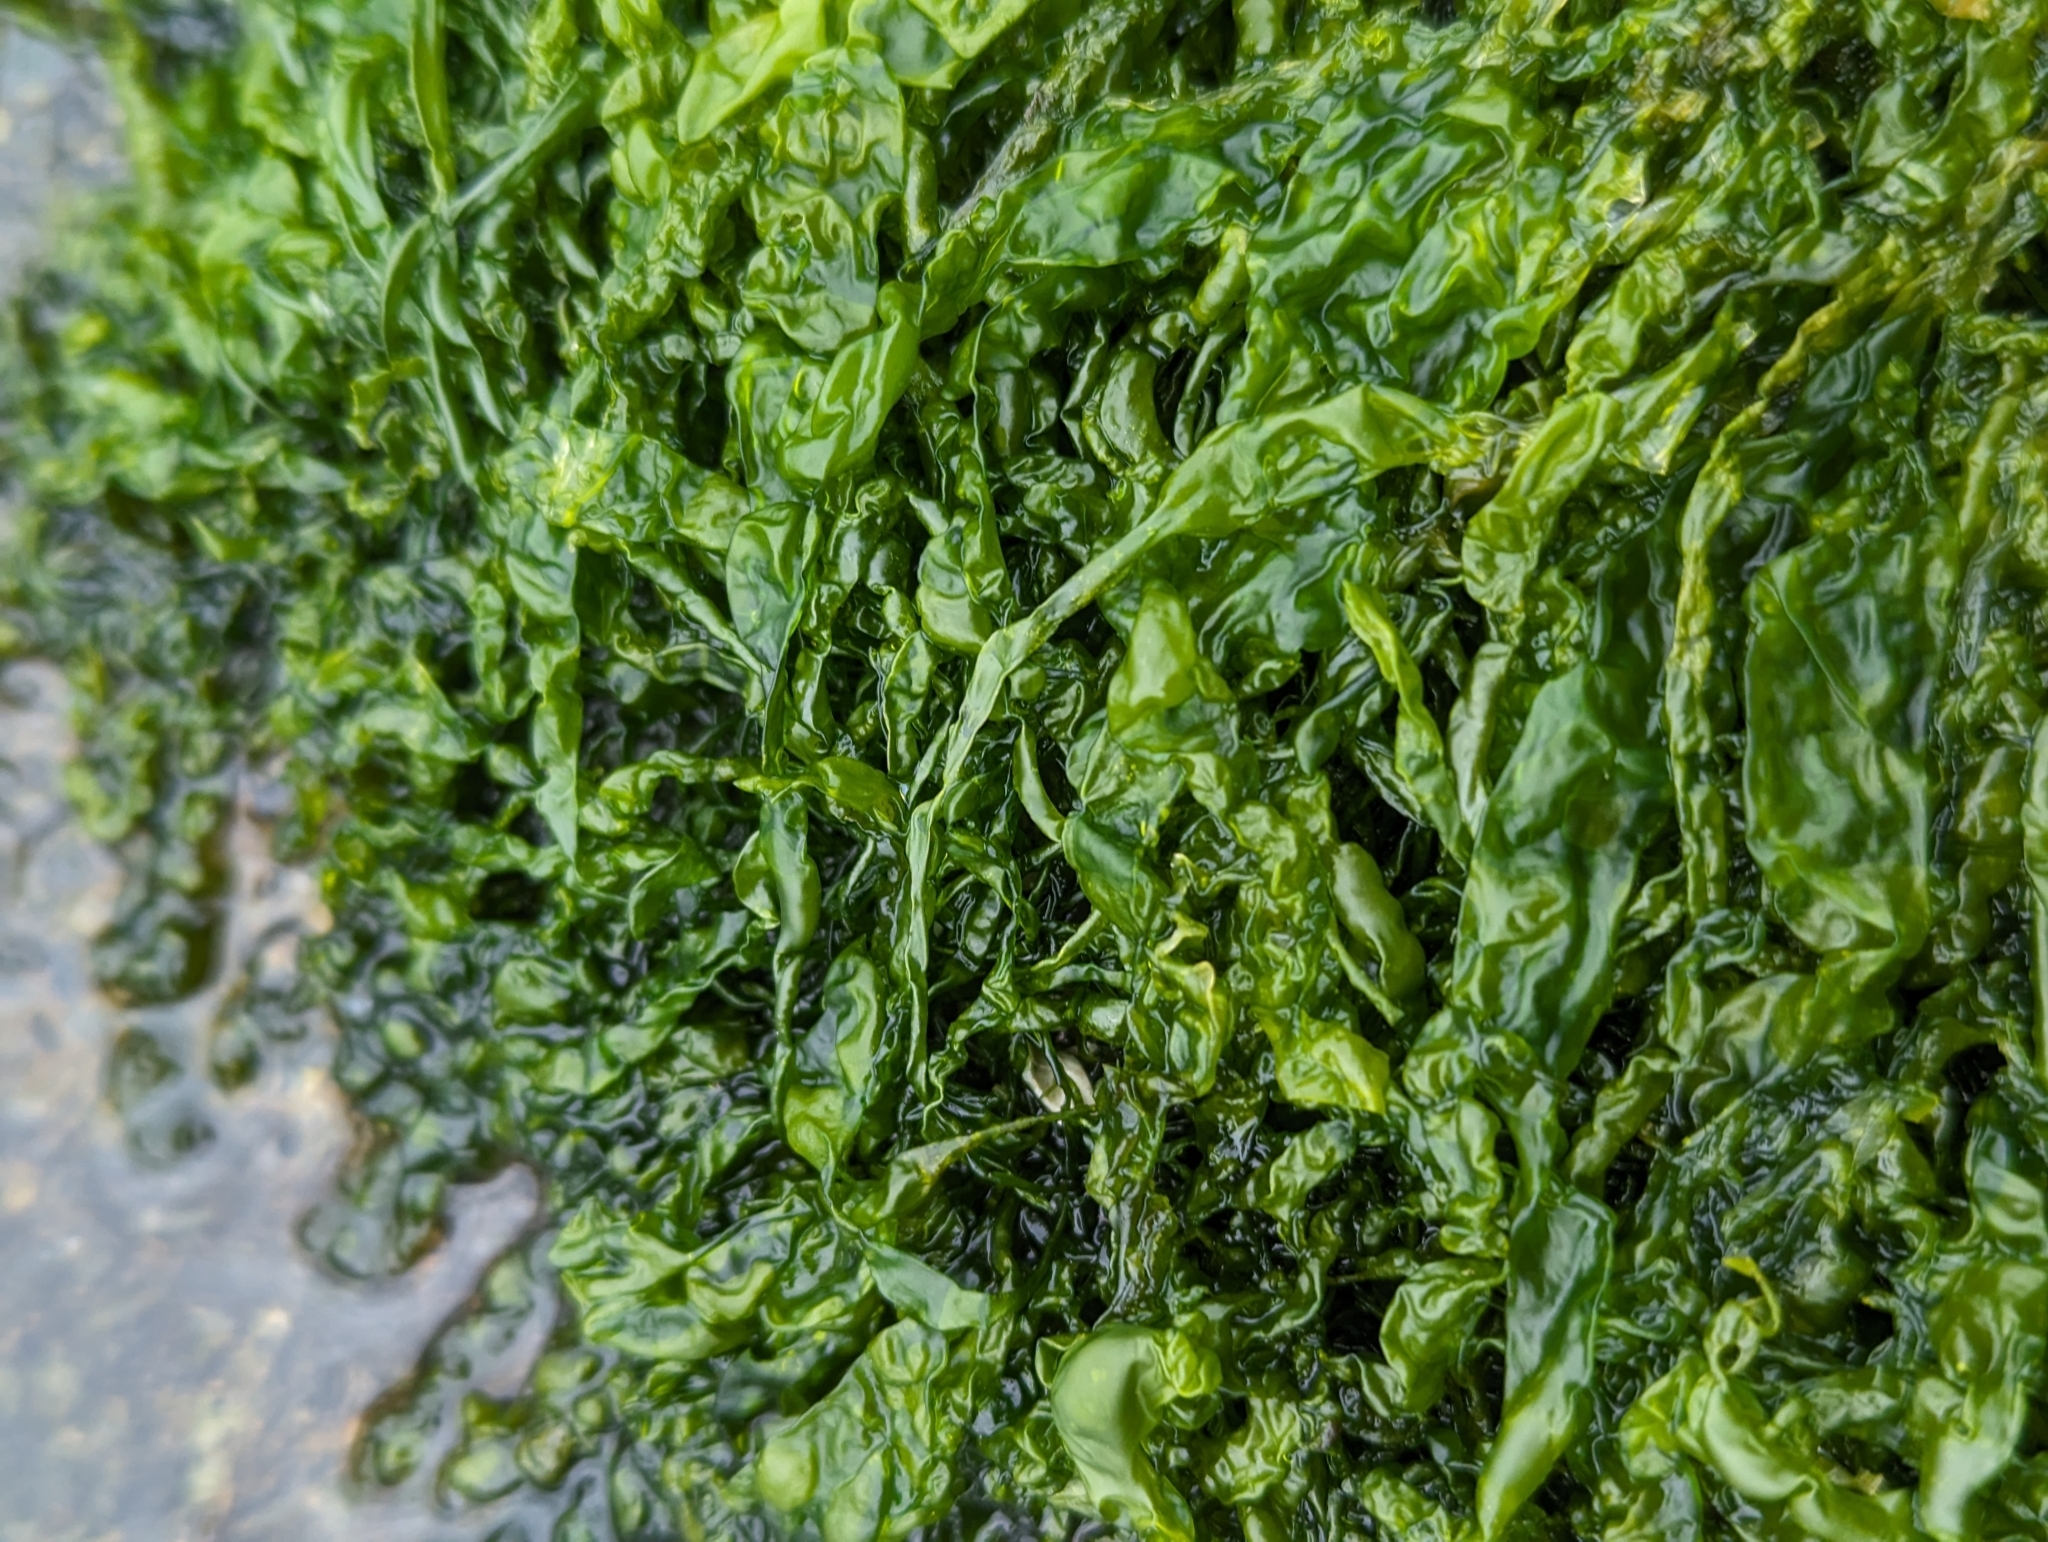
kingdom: Plantae
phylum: Chlorophyta
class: Ulvophyceae
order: Ulvales
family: Ulvaceae
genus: Ulva
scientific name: Ulva intestinalis
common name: Gut weed
